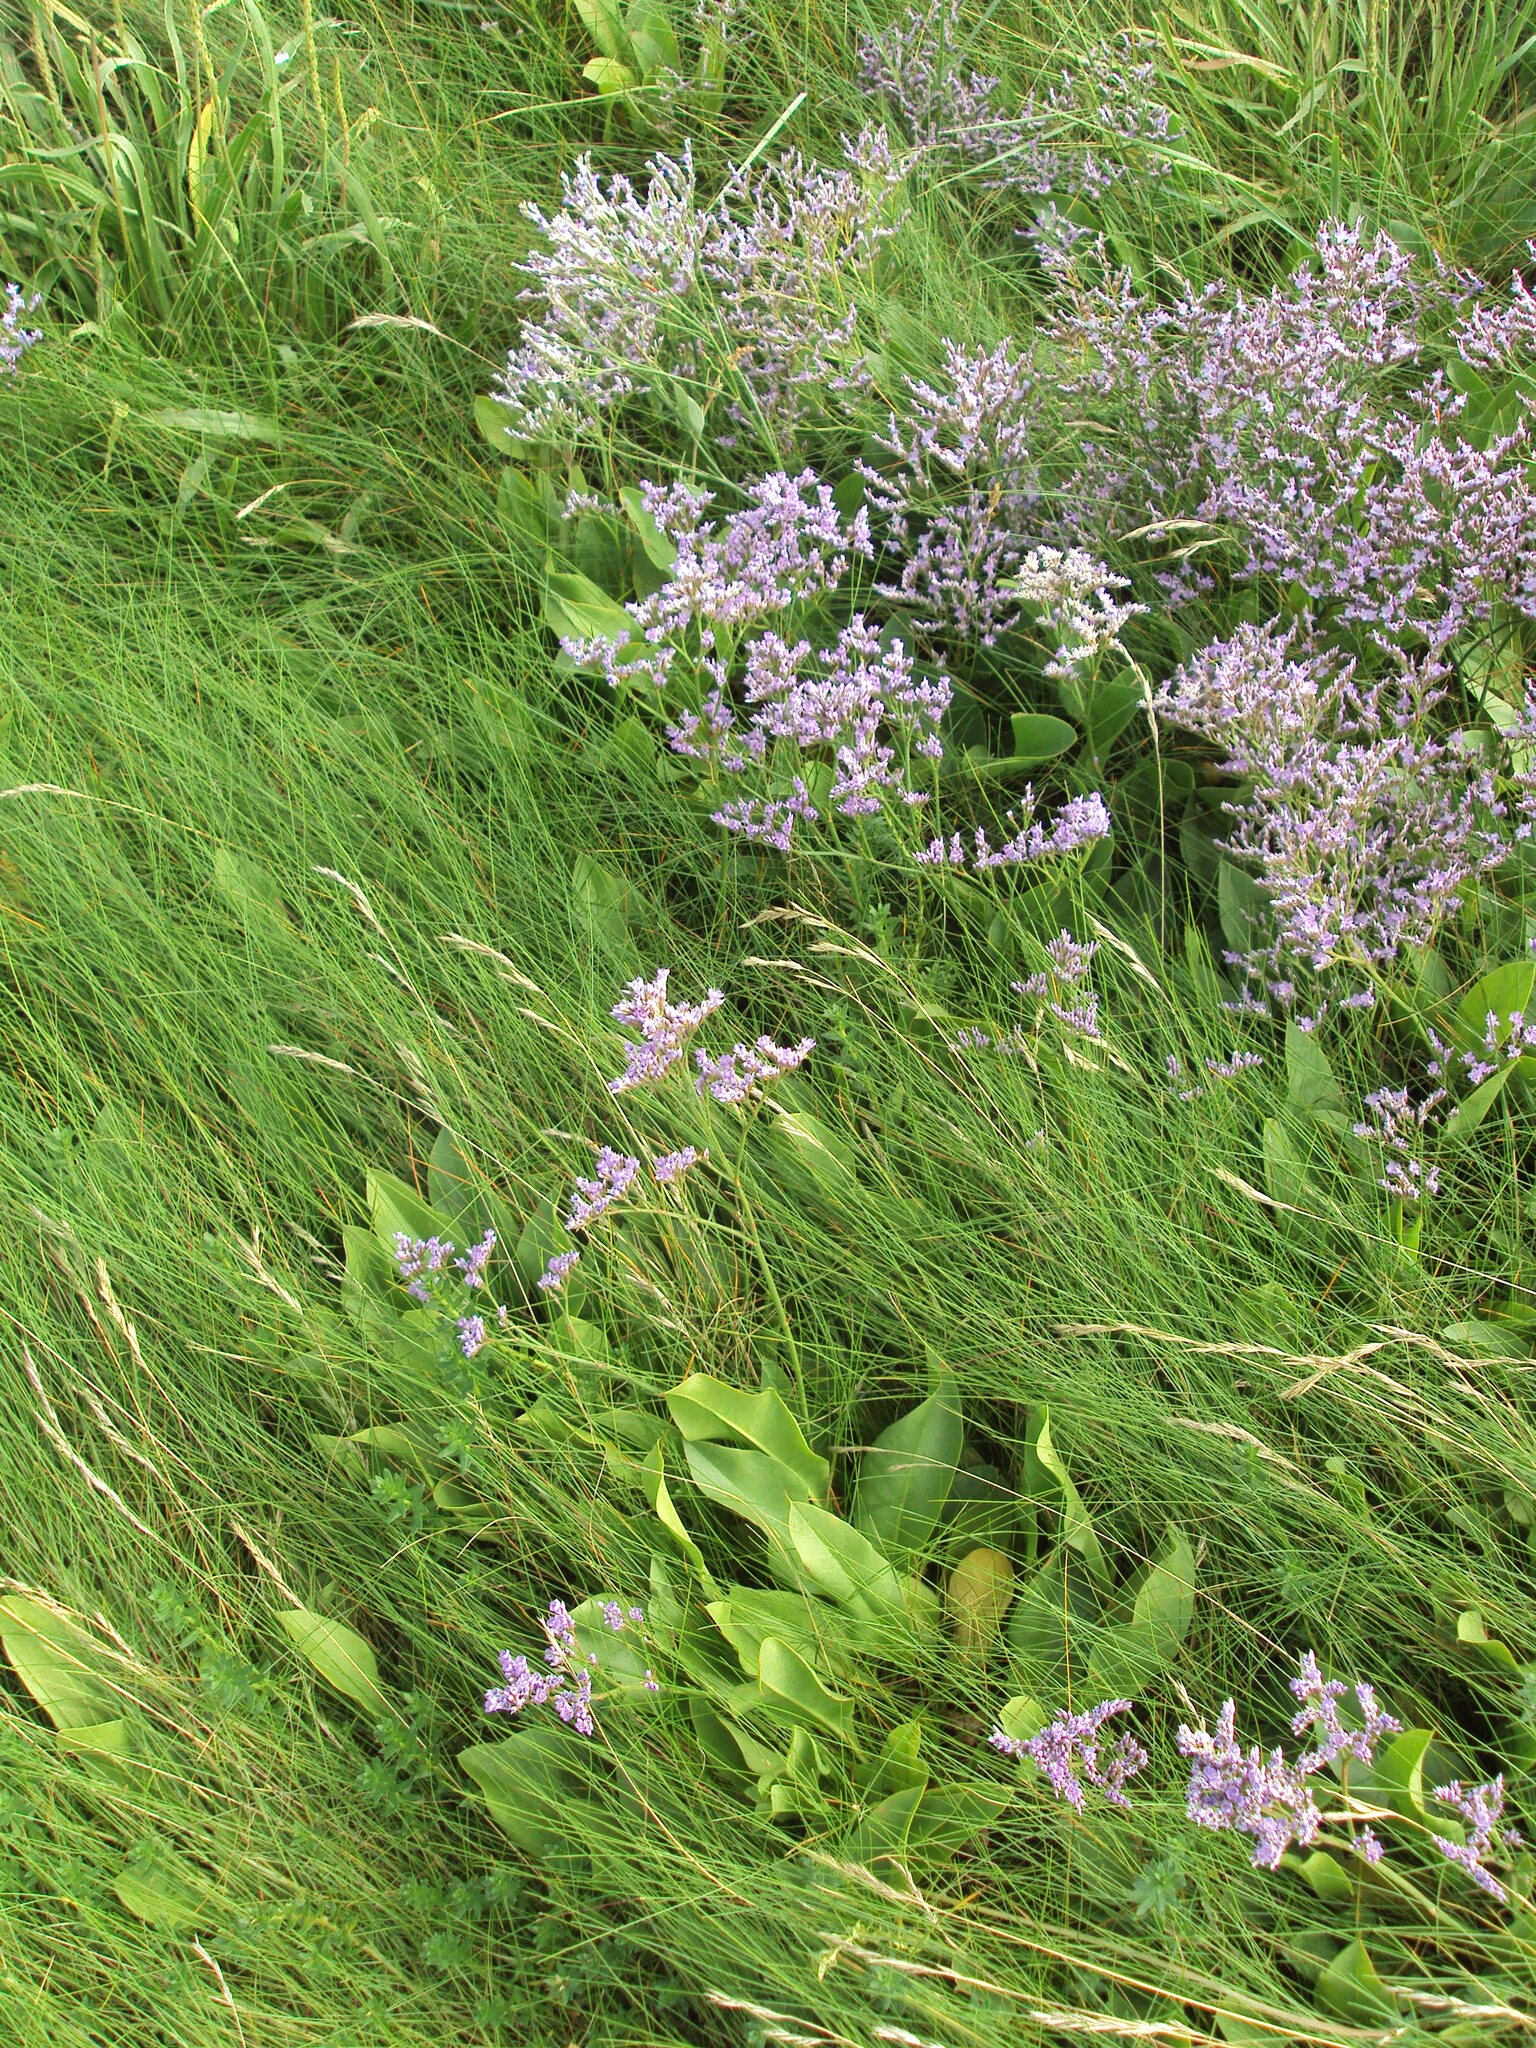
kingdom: Plantae
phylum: Tracheophyta
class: Magnoliopsida
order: Caryophyllales
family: Plumbaginaceae
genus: Limonium
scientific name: Limonium vulgare
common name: Common sea-lavender
